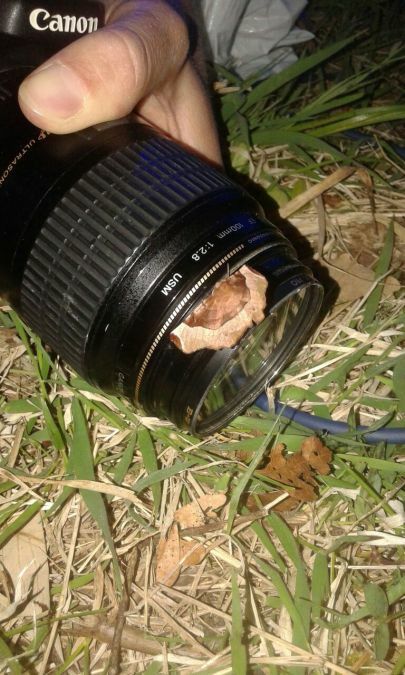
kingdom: Animalia
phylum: Arthropoda
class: Insecta
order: Lepidoptera
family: Geometridae
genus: Selenia
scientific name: Selenia tetralunaria
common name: Purple thorn
